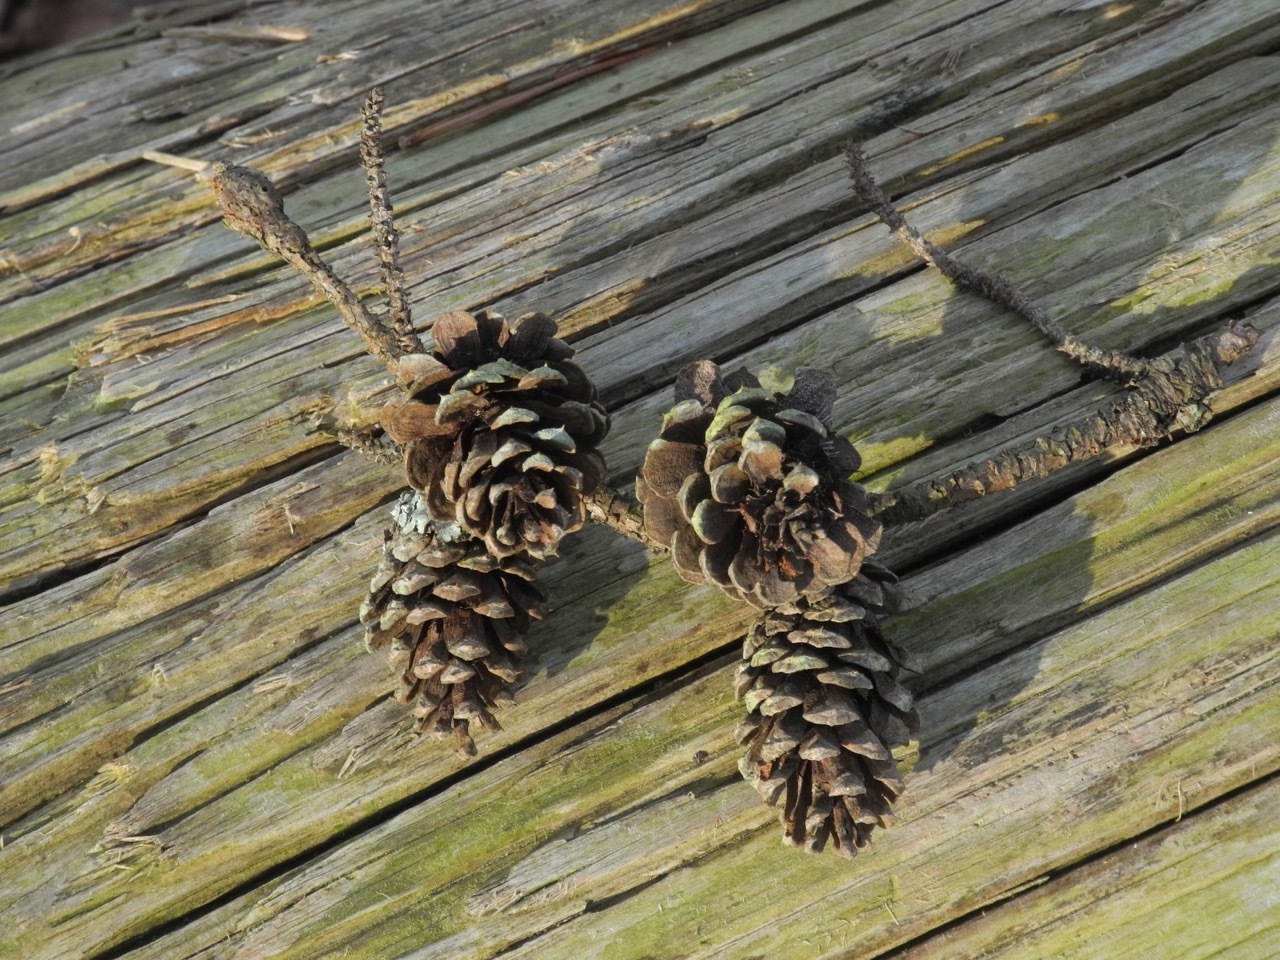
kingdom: Plantae
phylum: Tracheophyta
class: Pinopsida
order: Pinales
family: Pinaceae
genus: Pinus
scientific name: Pinus echinata
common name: Shortleaf pine
